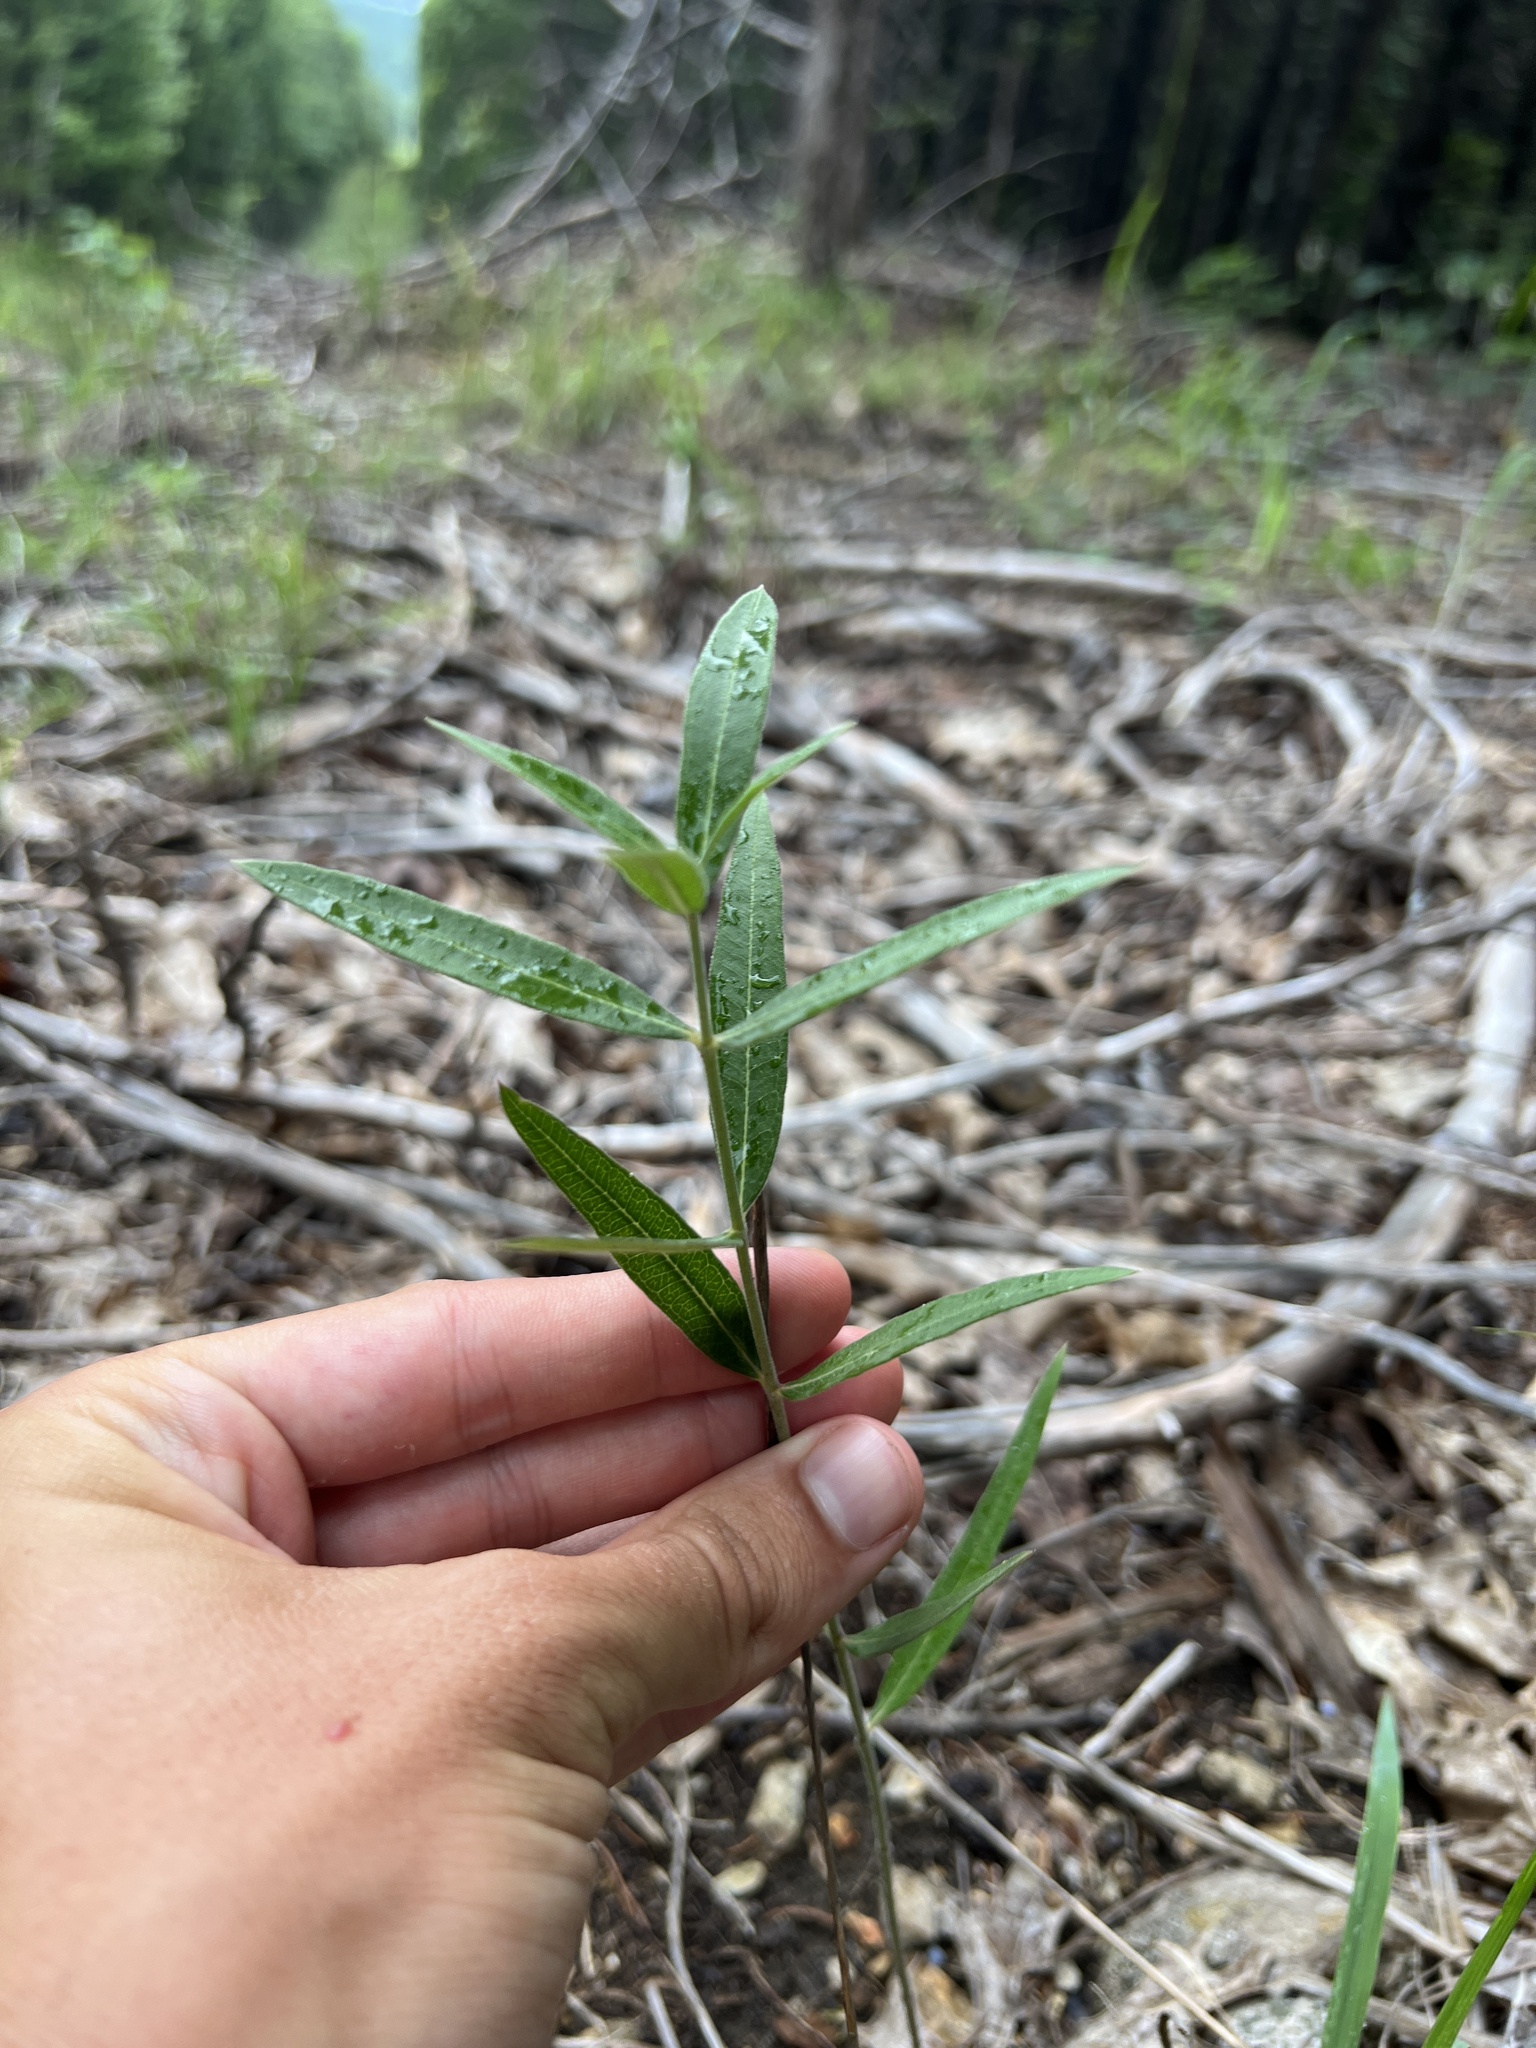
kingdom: Plantae
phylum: Tracheophyta
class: Magnoliopsida
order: Gentianales
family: Apocynaceae
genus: Asclepias
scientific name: Asclepias viridiflora
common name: Green comet milkweed
